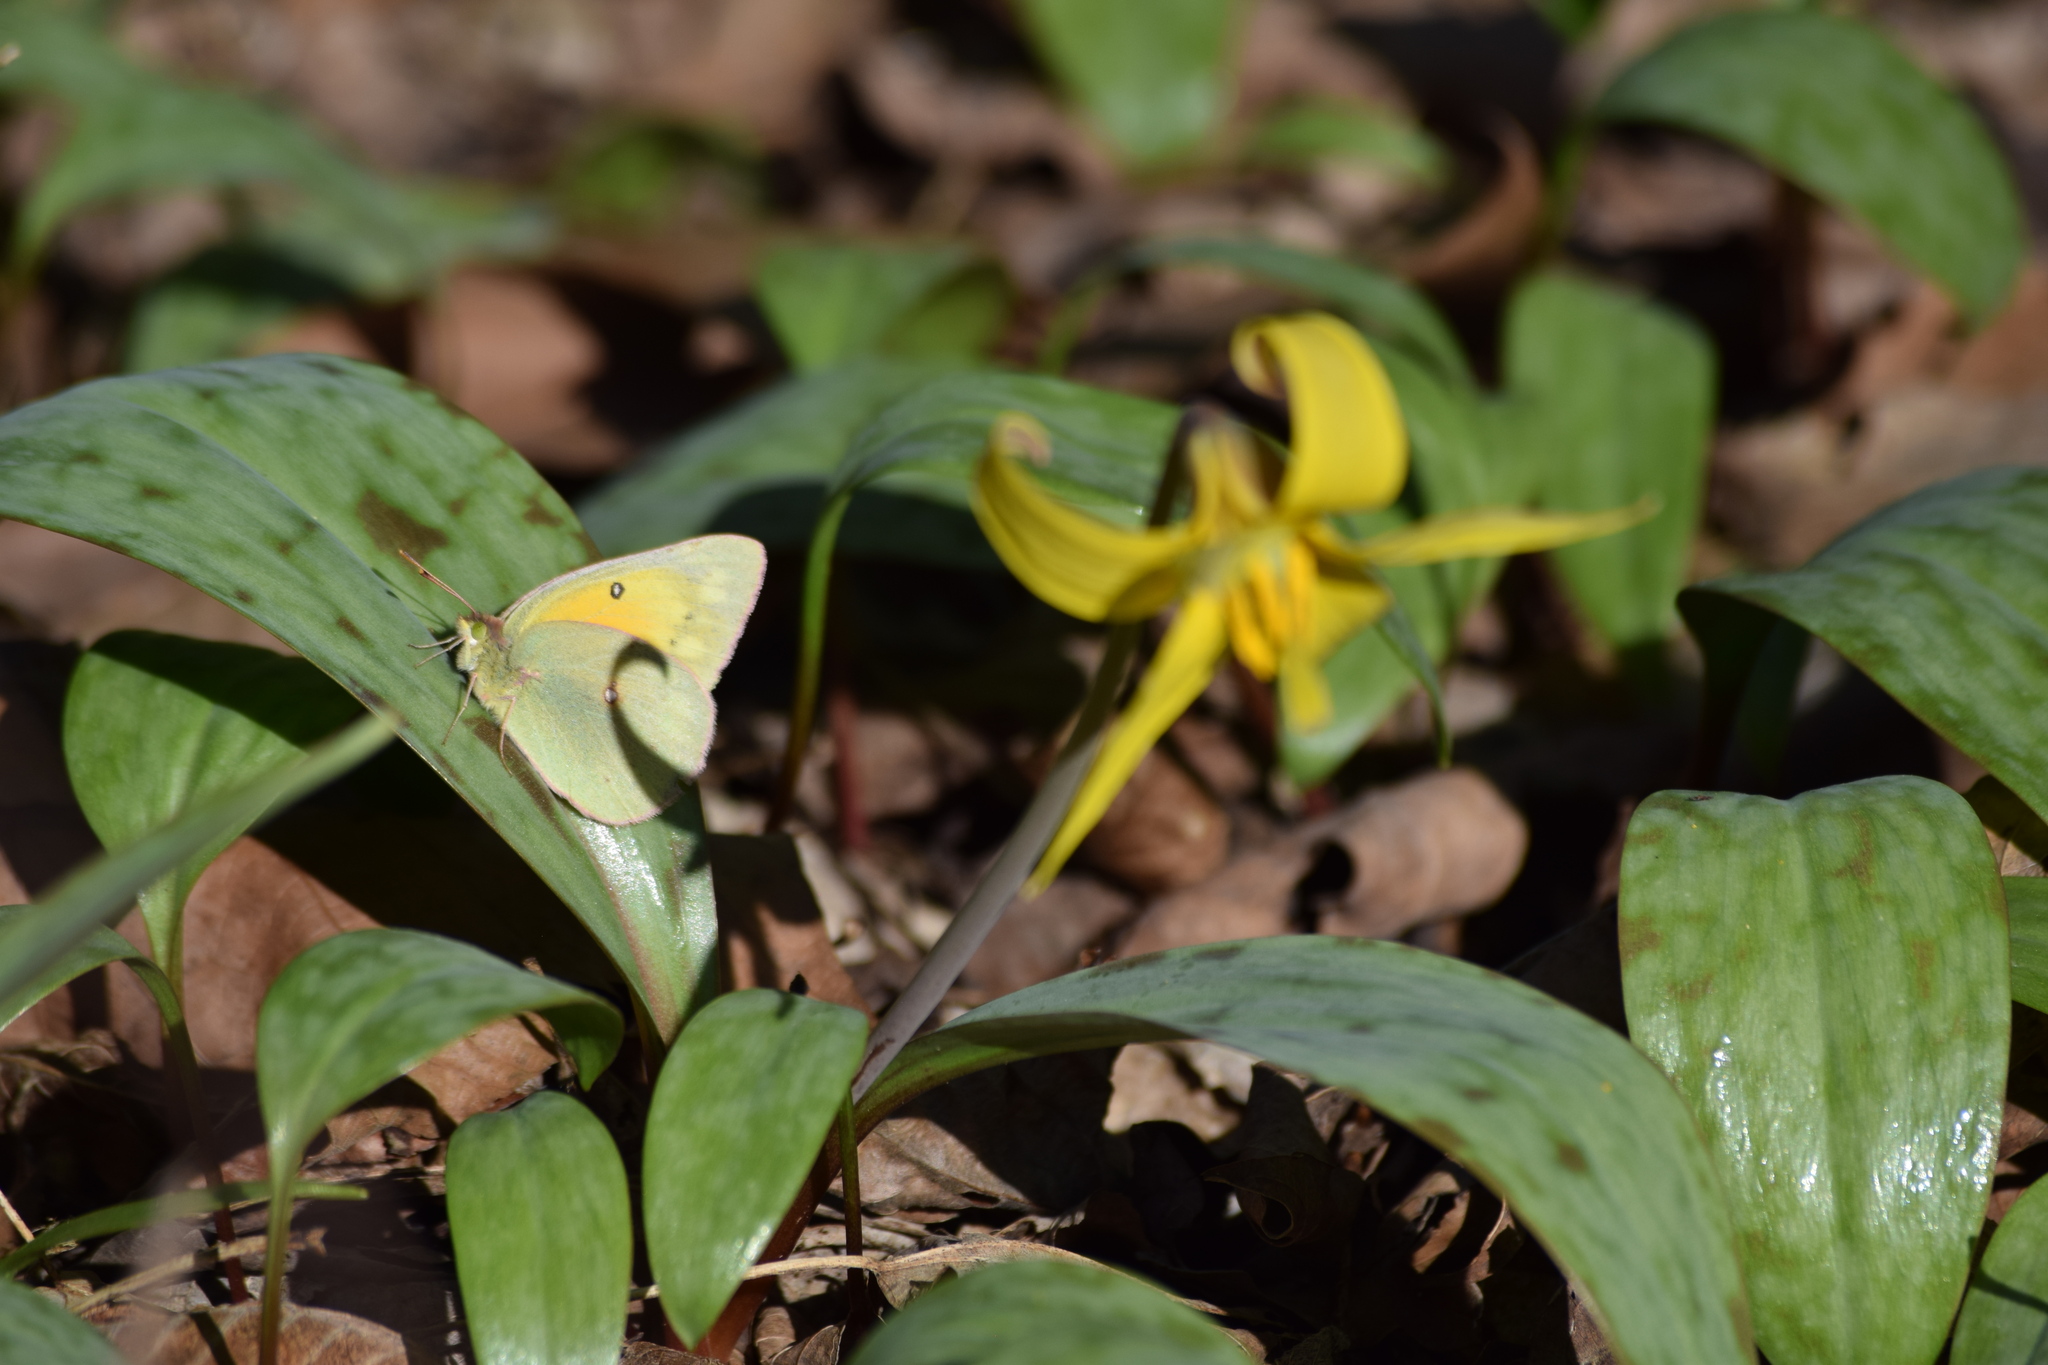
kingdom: Animalia
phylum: Arthropoda
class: Insecta
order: Lepidoptera
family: Pieridae
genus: Colias
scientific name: Colias eurytheme
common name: Alfalfa butterfly
